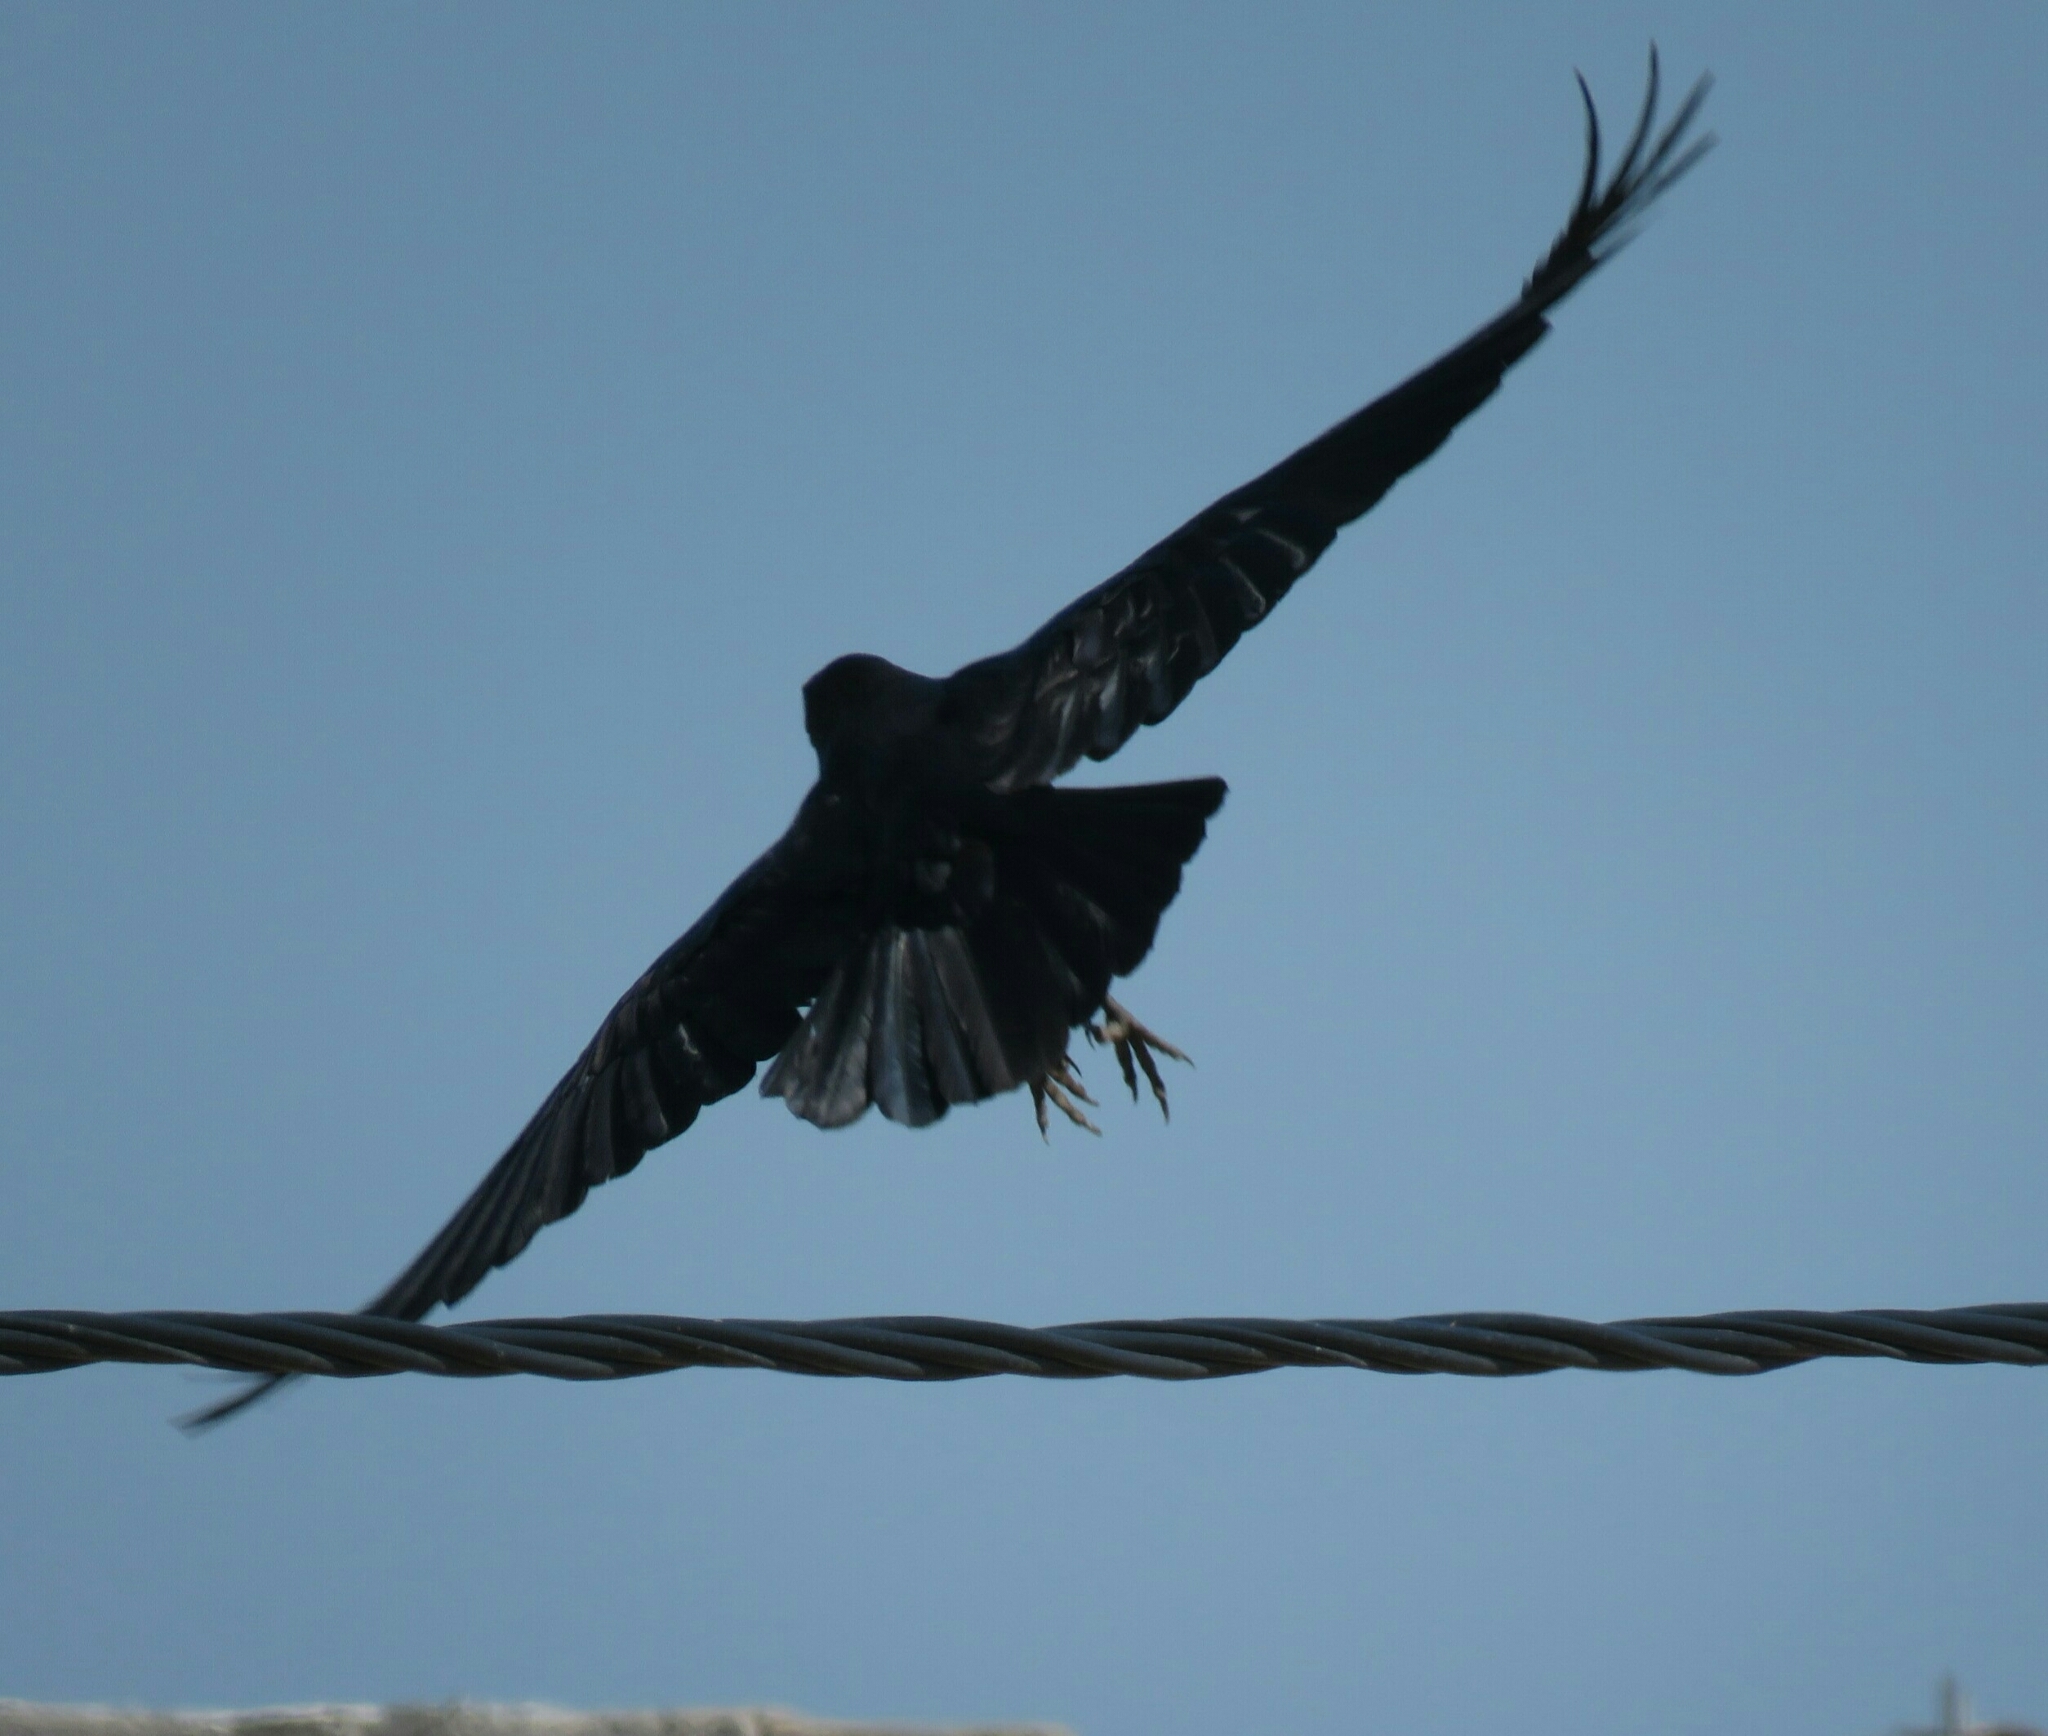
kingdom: Animalia
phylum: Chordata
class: Aves
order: Passeriformes
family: Corvidae
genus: Corvus
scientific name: Corvus corax
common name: Common raven
